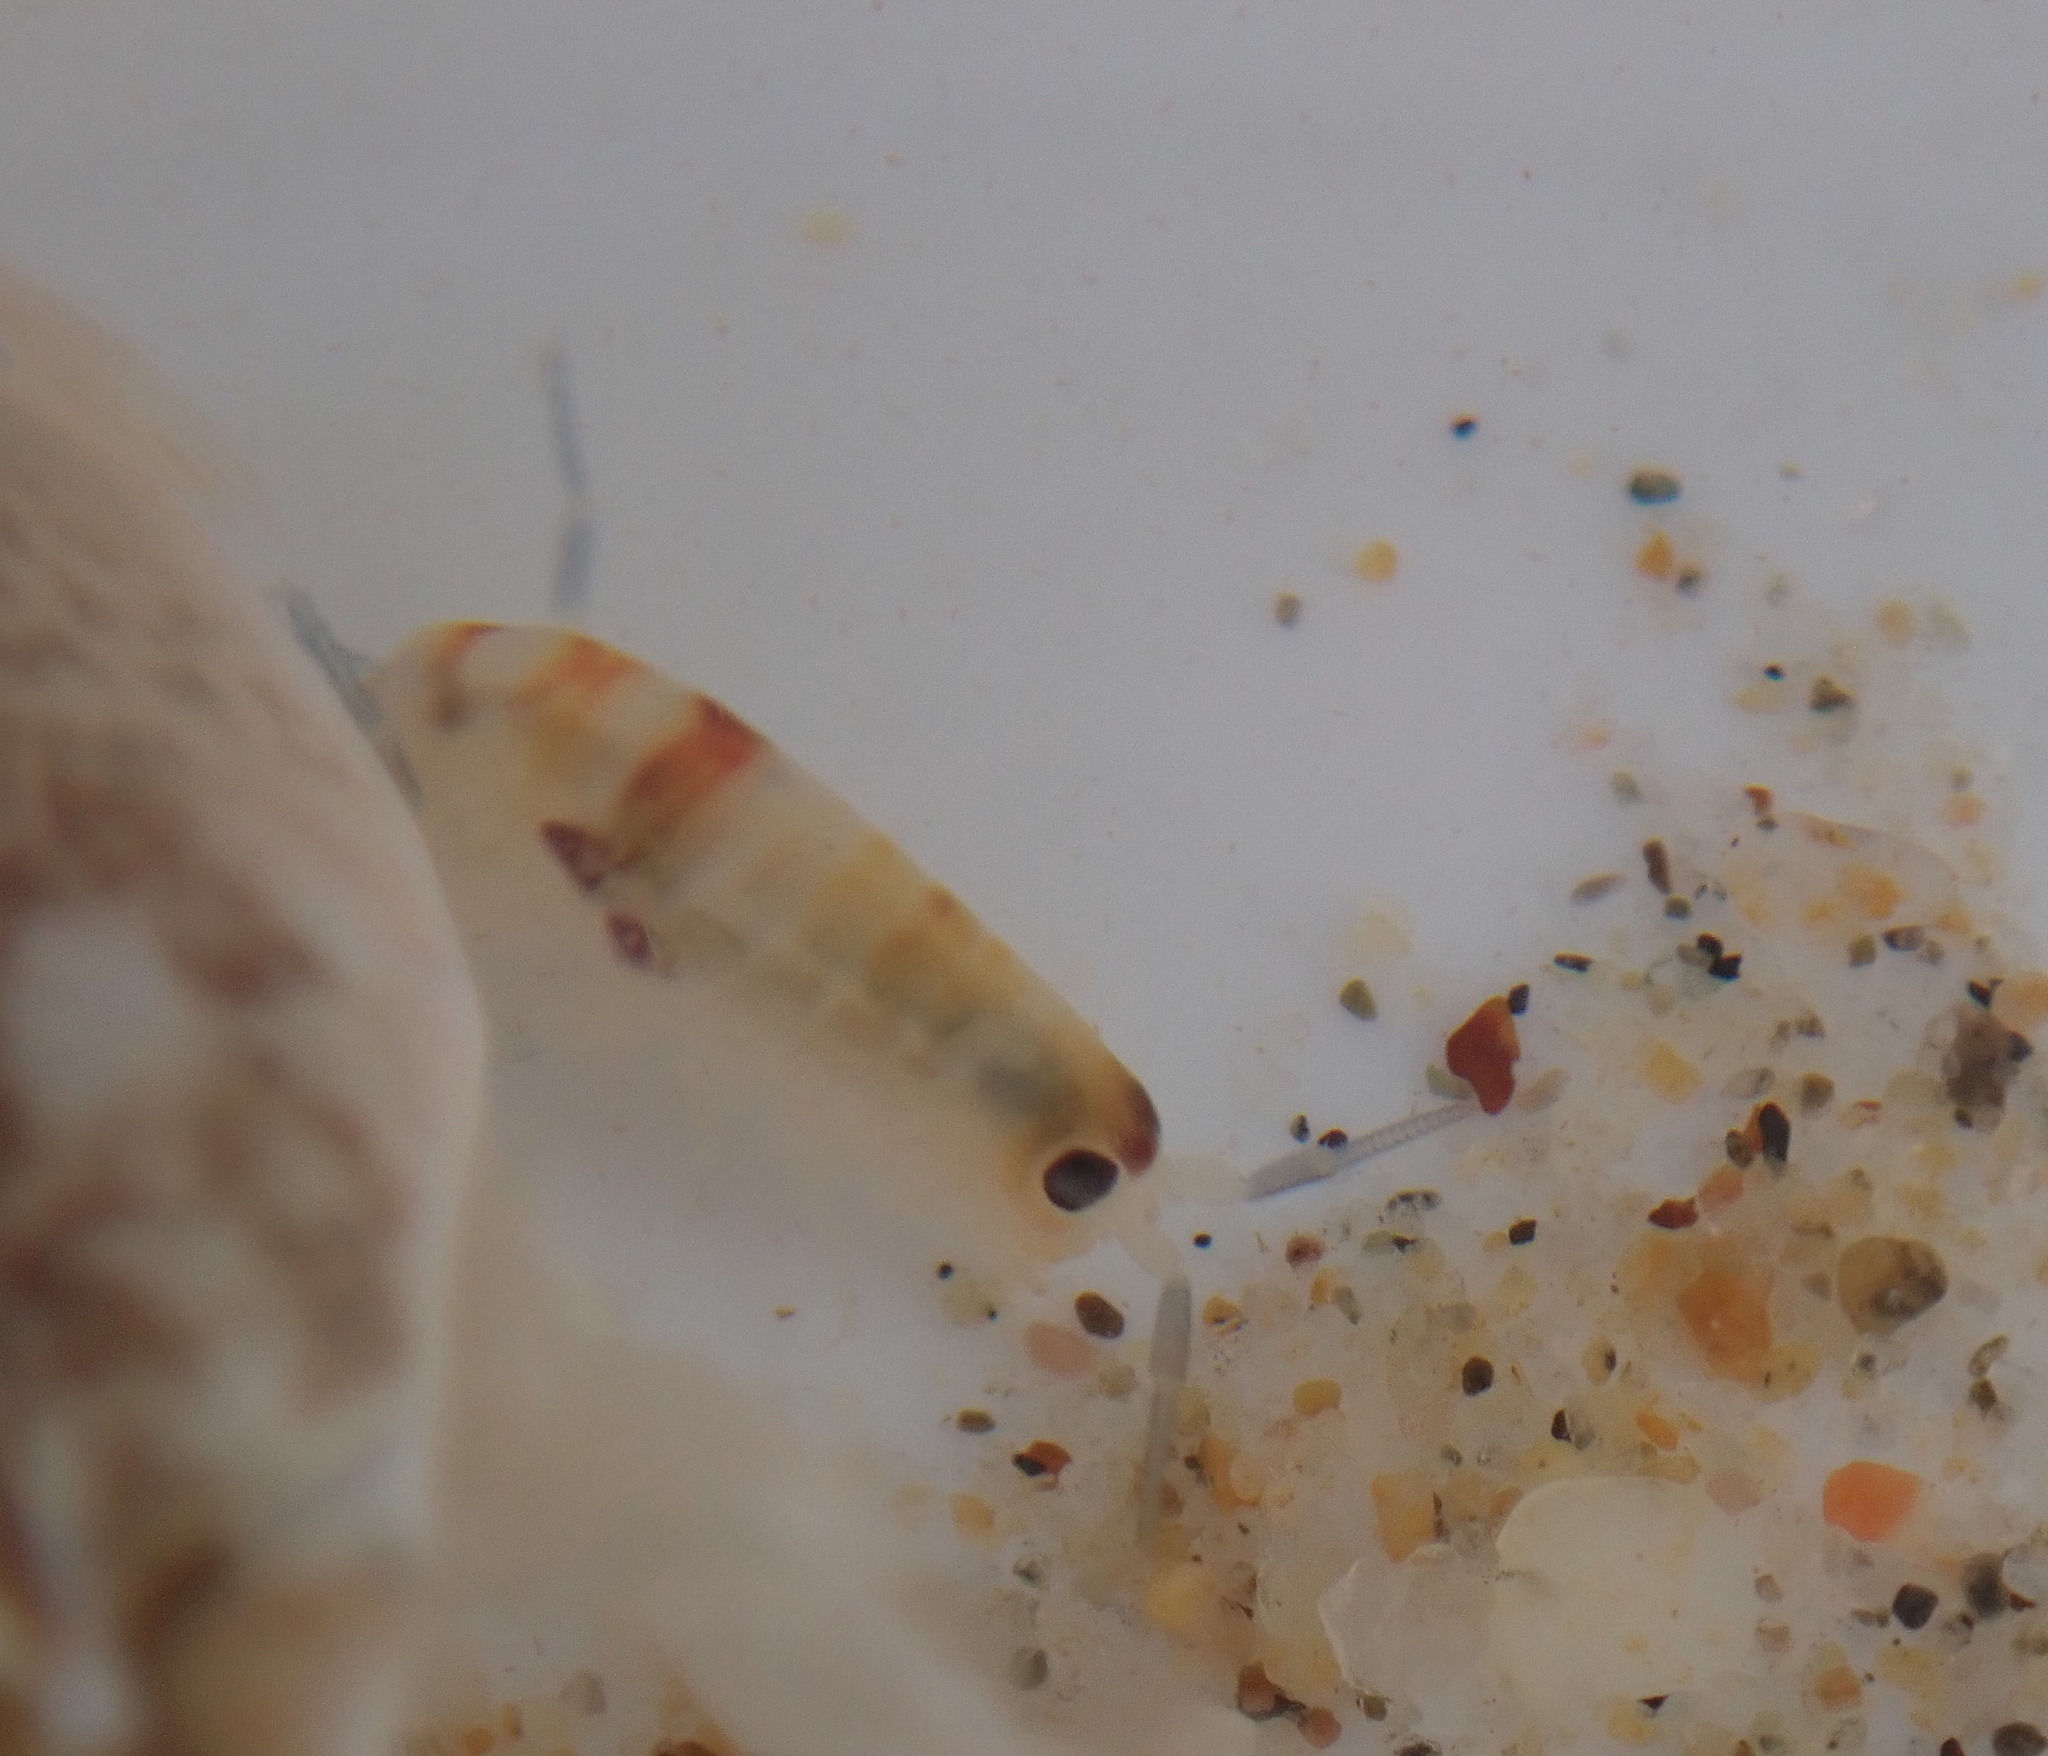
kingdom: Animalia
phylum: Arthropoda
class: Malacostraca
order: Amphipoda
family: Talitridae
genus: Megalorchestia
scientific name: Megalorchestia columbiana
